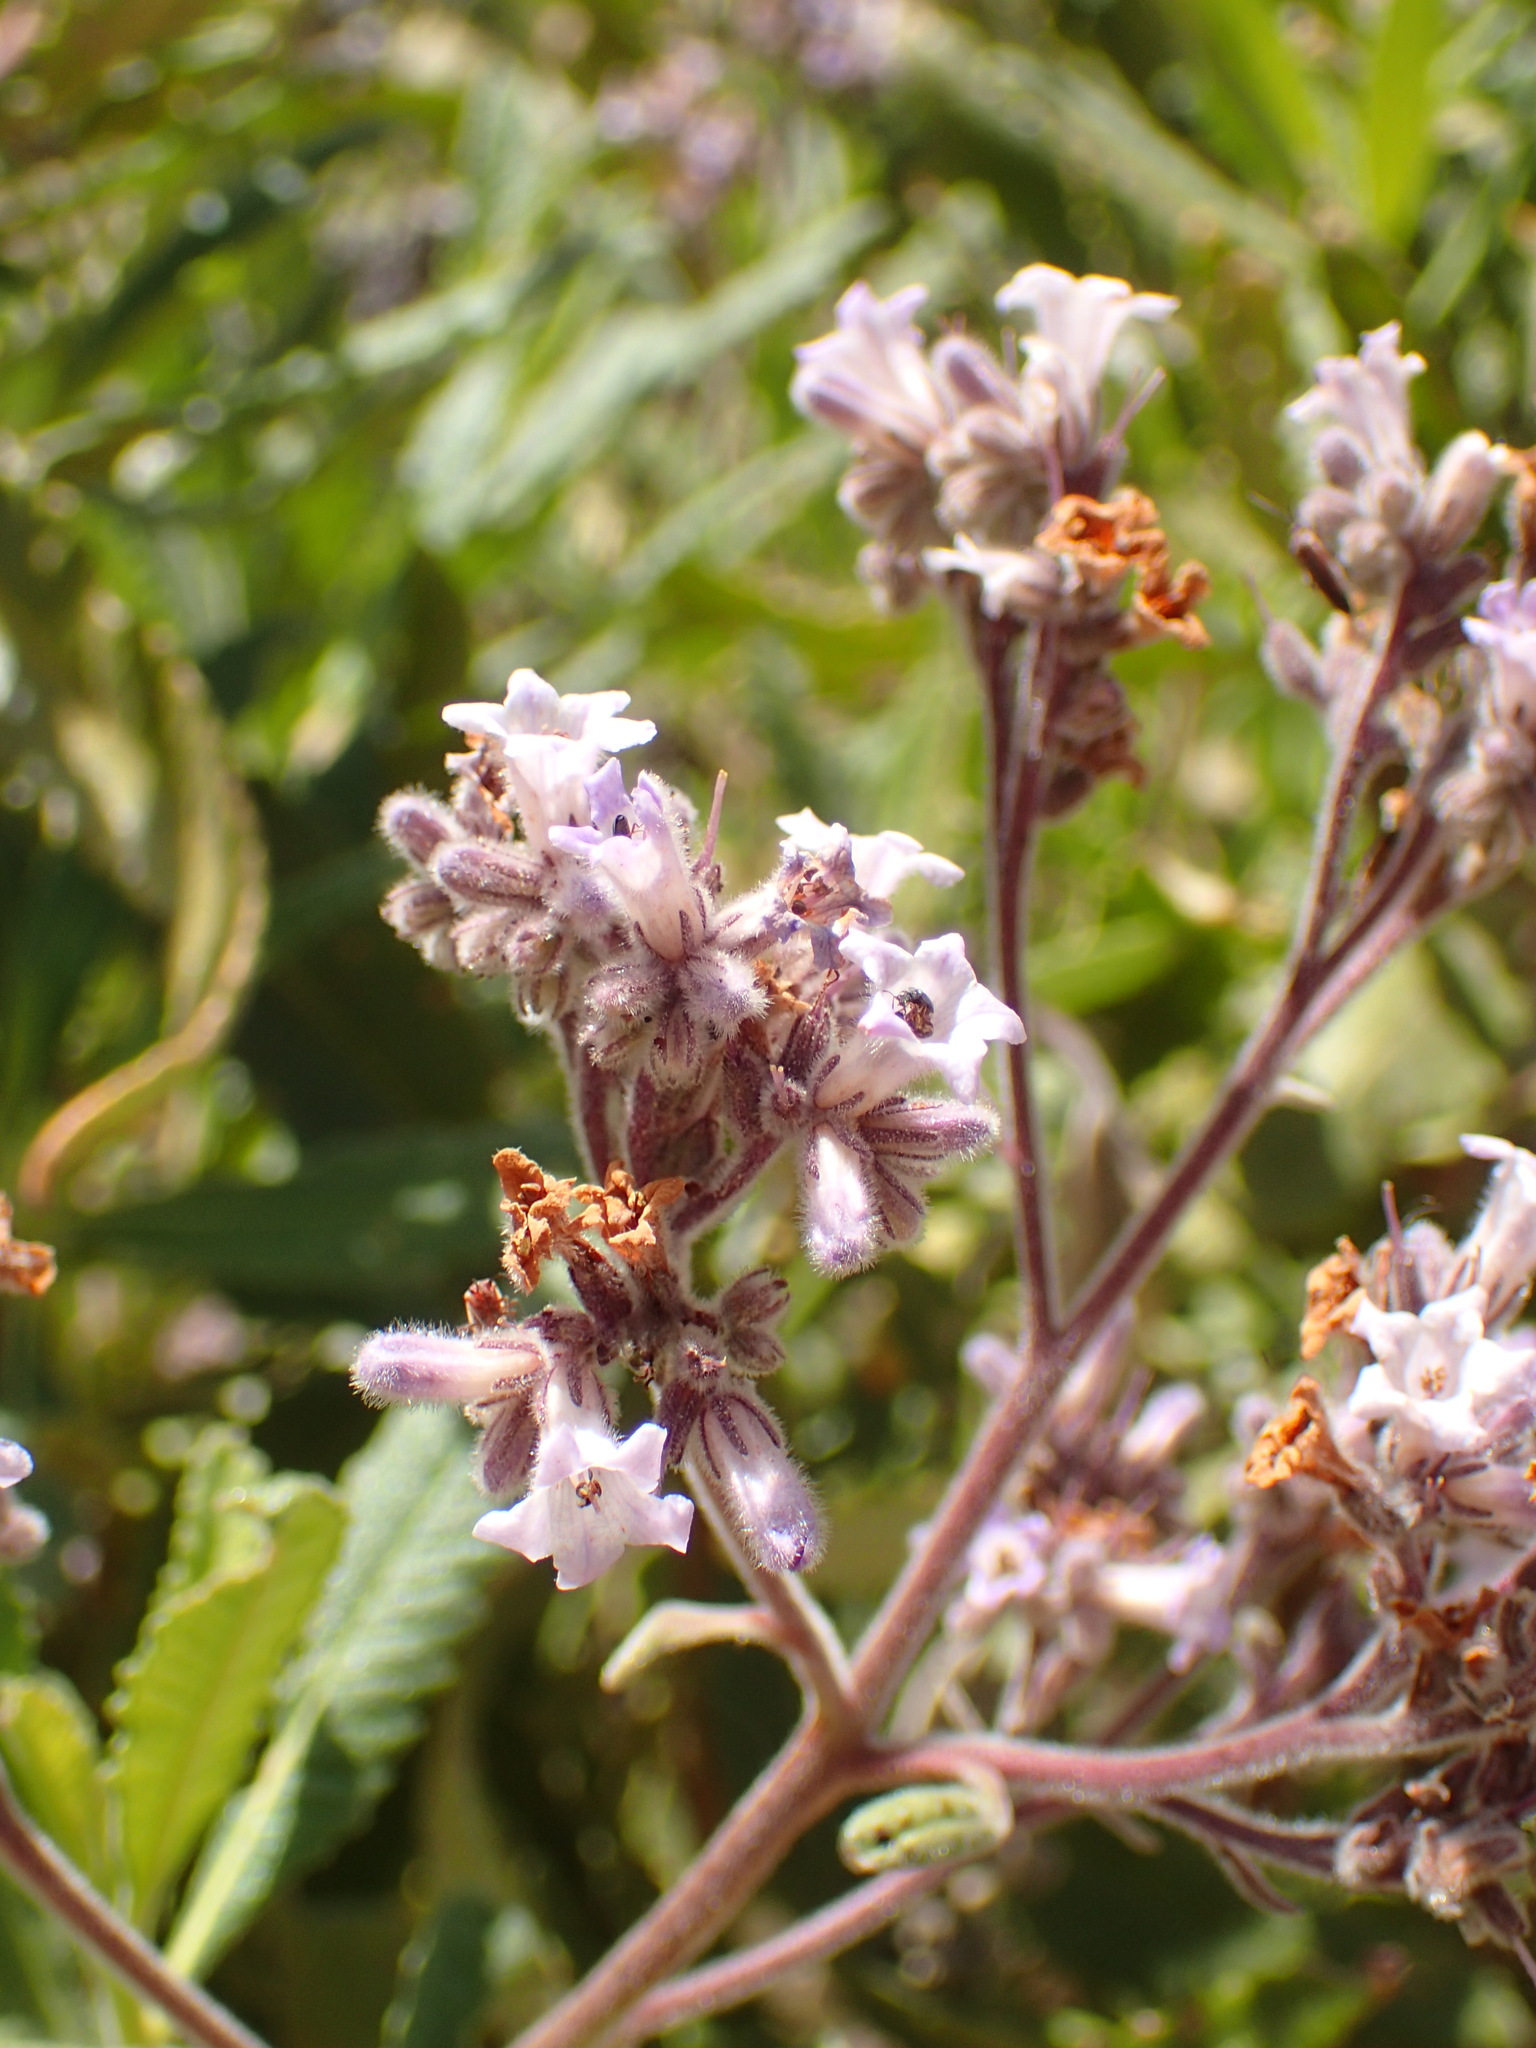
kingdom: Plantae
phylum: Tracheophyta
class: Magnoliopsida
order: Boraginales
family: Namaceae
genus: Eriodictyon
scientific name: Eriodictyon crassifolium
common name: Thick-leaf yerba-santa
